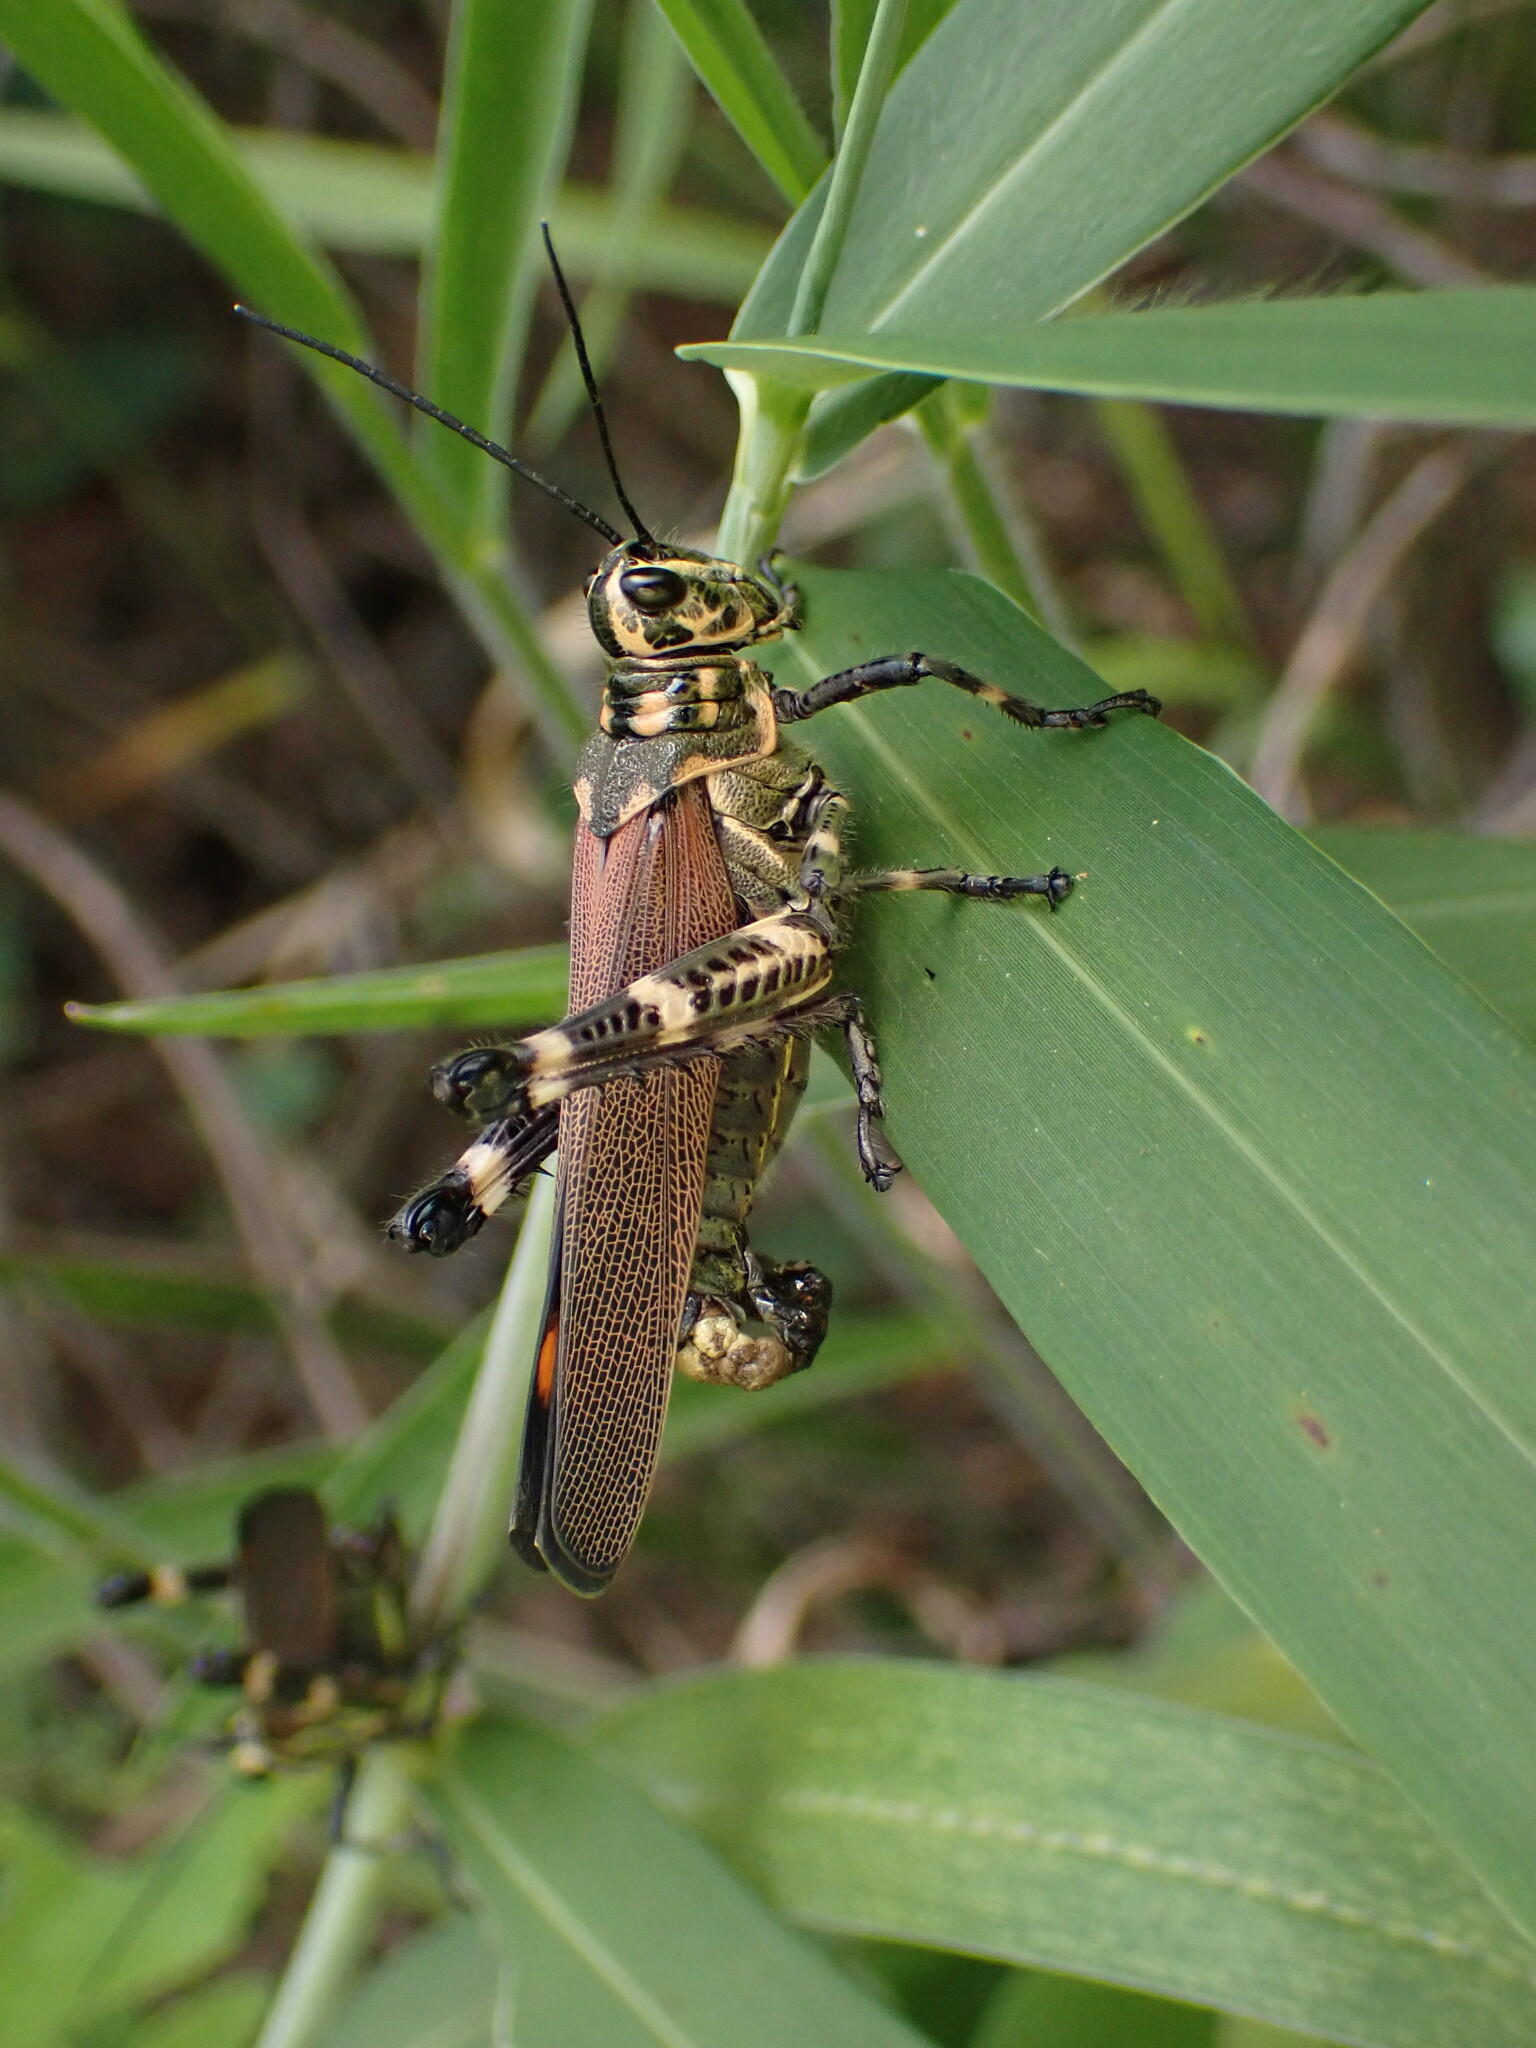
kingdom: Animalia
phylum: Arthropoda
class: Insecta
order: Orthoptera
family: Romaleidae
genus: Chromacris
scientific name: Chromacris speciosa
